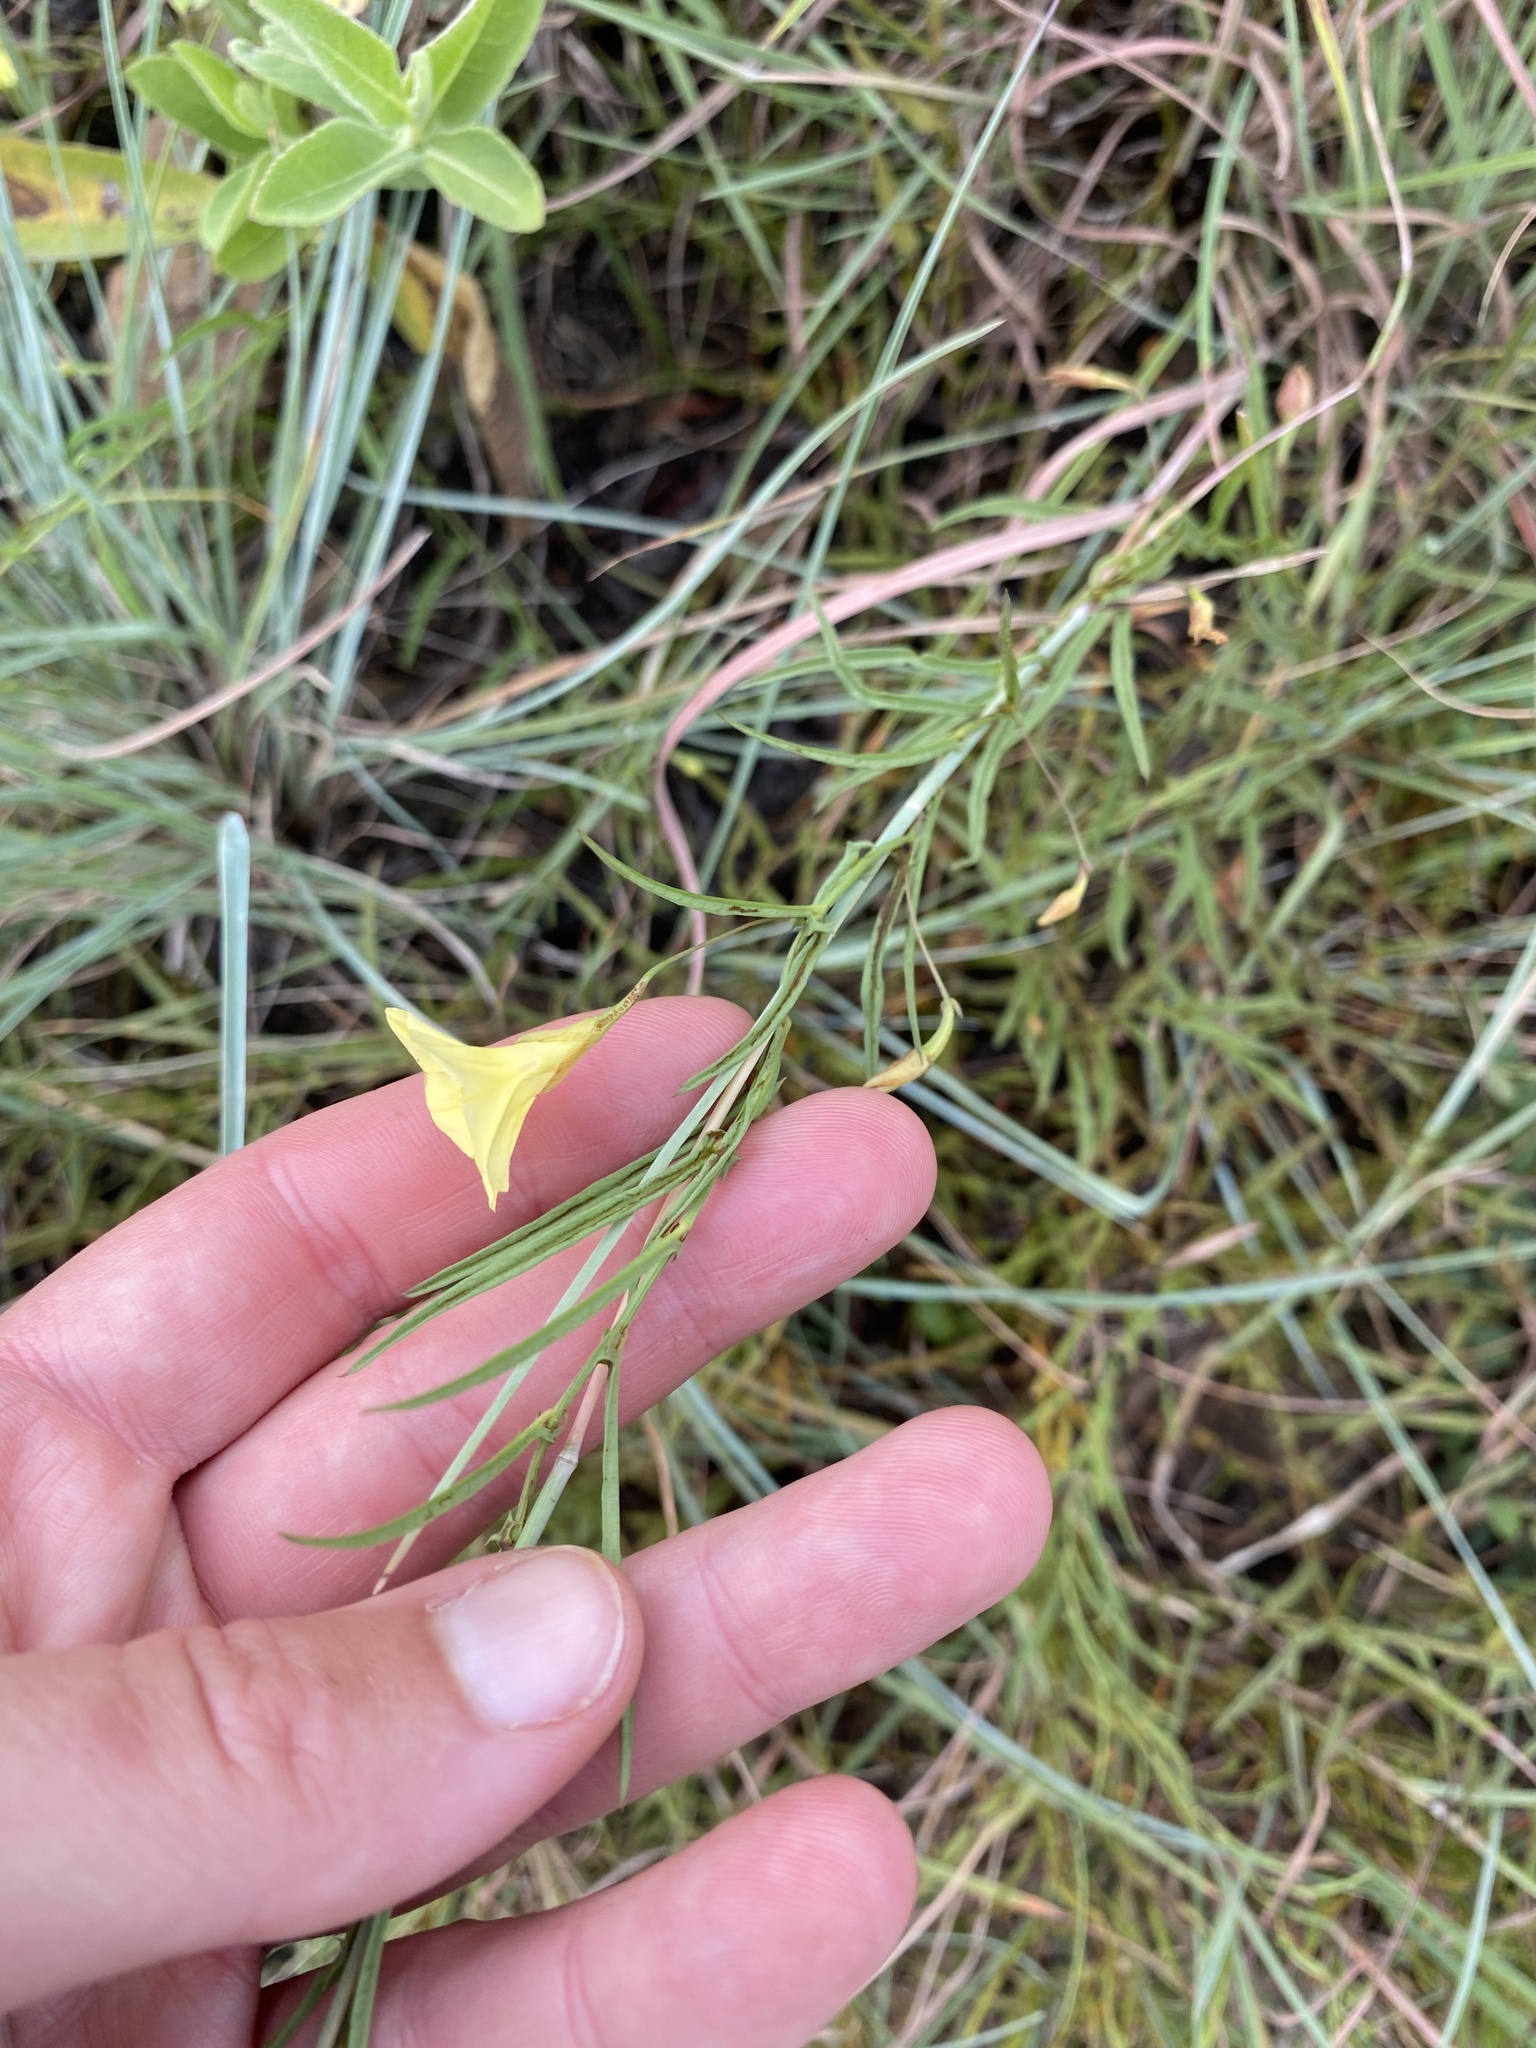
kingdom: Plantae
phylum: Tracheophyta
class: Magnoliopsida
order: Solanales
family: Convolvulaceae
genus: Xenostegia
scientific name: Xenostegia tridentata
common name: African morningvine
